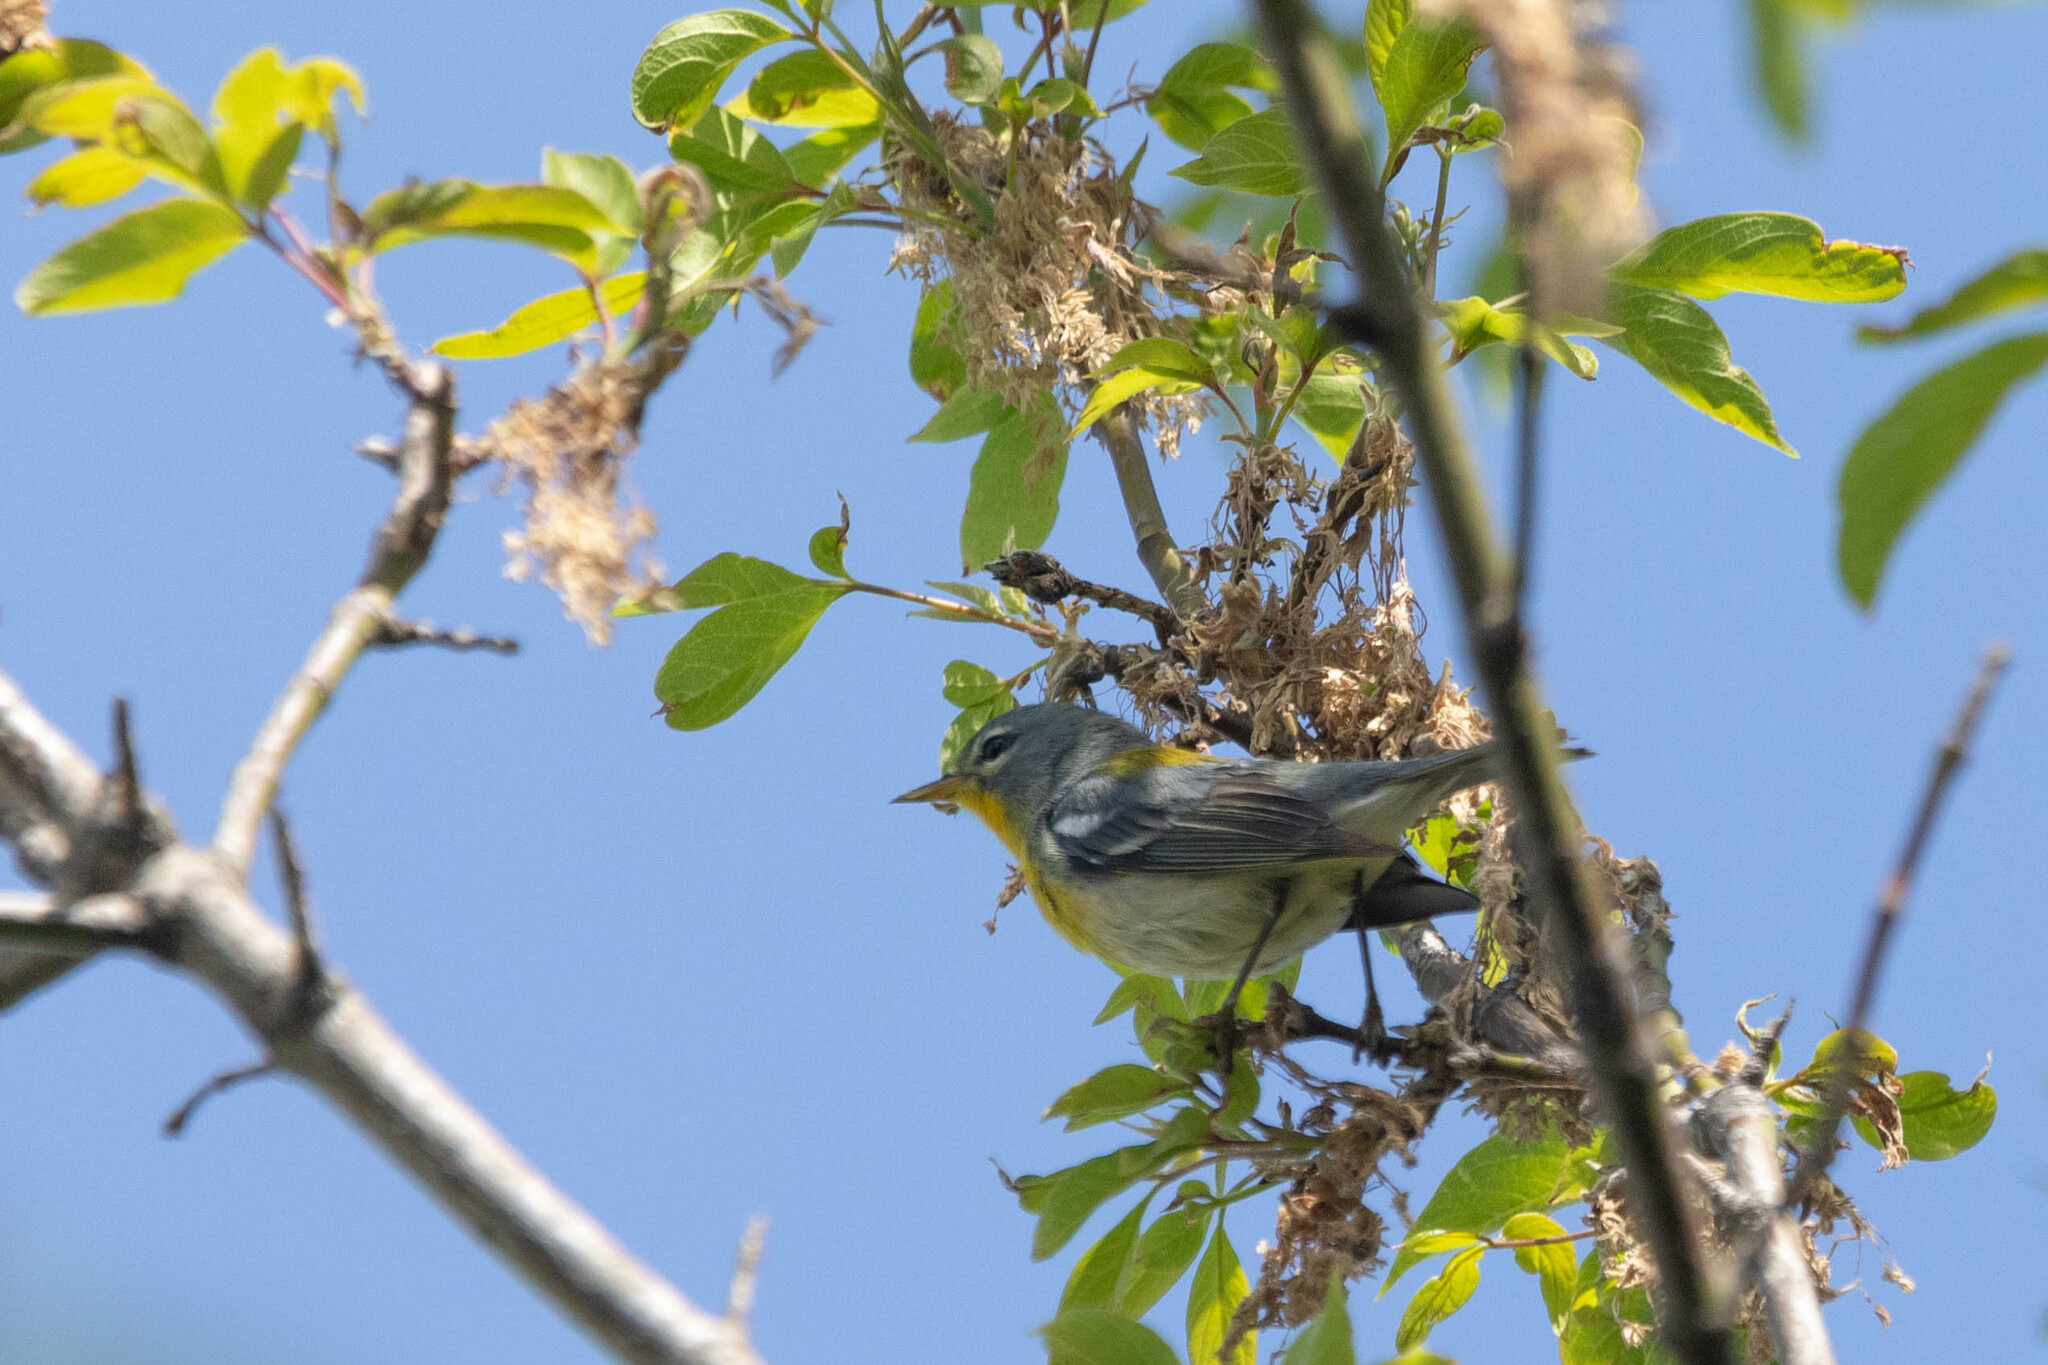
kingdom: Animalia
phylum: Chordata
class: Aves
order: Passeriformes
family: Parulidae
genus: Setophaga
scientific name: Setophaga americana
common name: Northern parula
